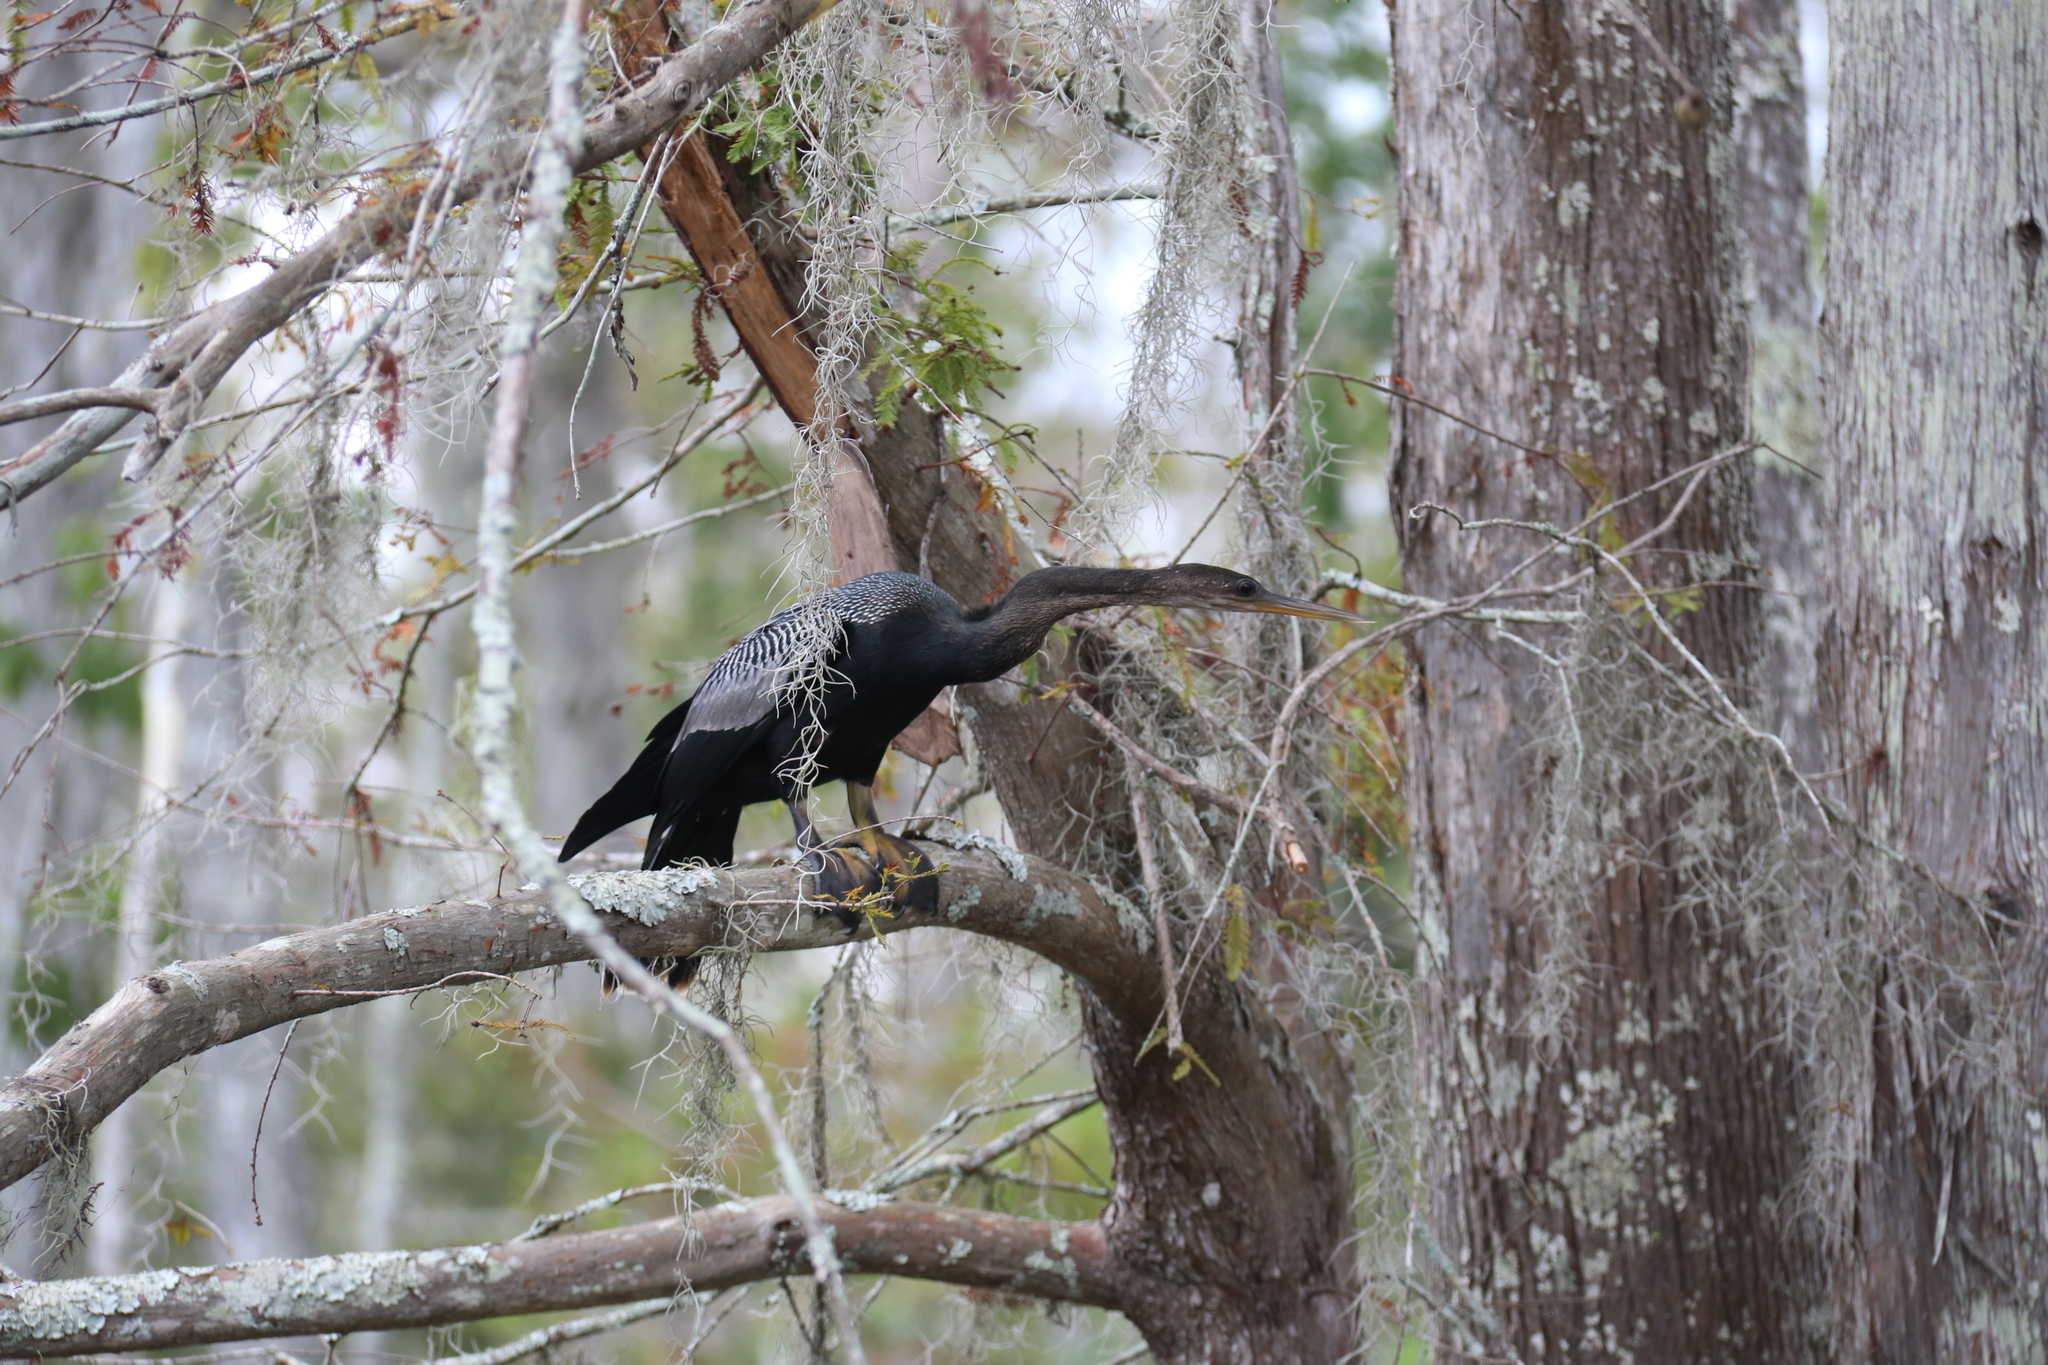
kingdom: Animalia
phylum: Chordata
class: Aves
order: Suliformes
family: Anhingidae
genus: Anhinga
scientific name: Anhinga anhinga
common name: Anhinga
